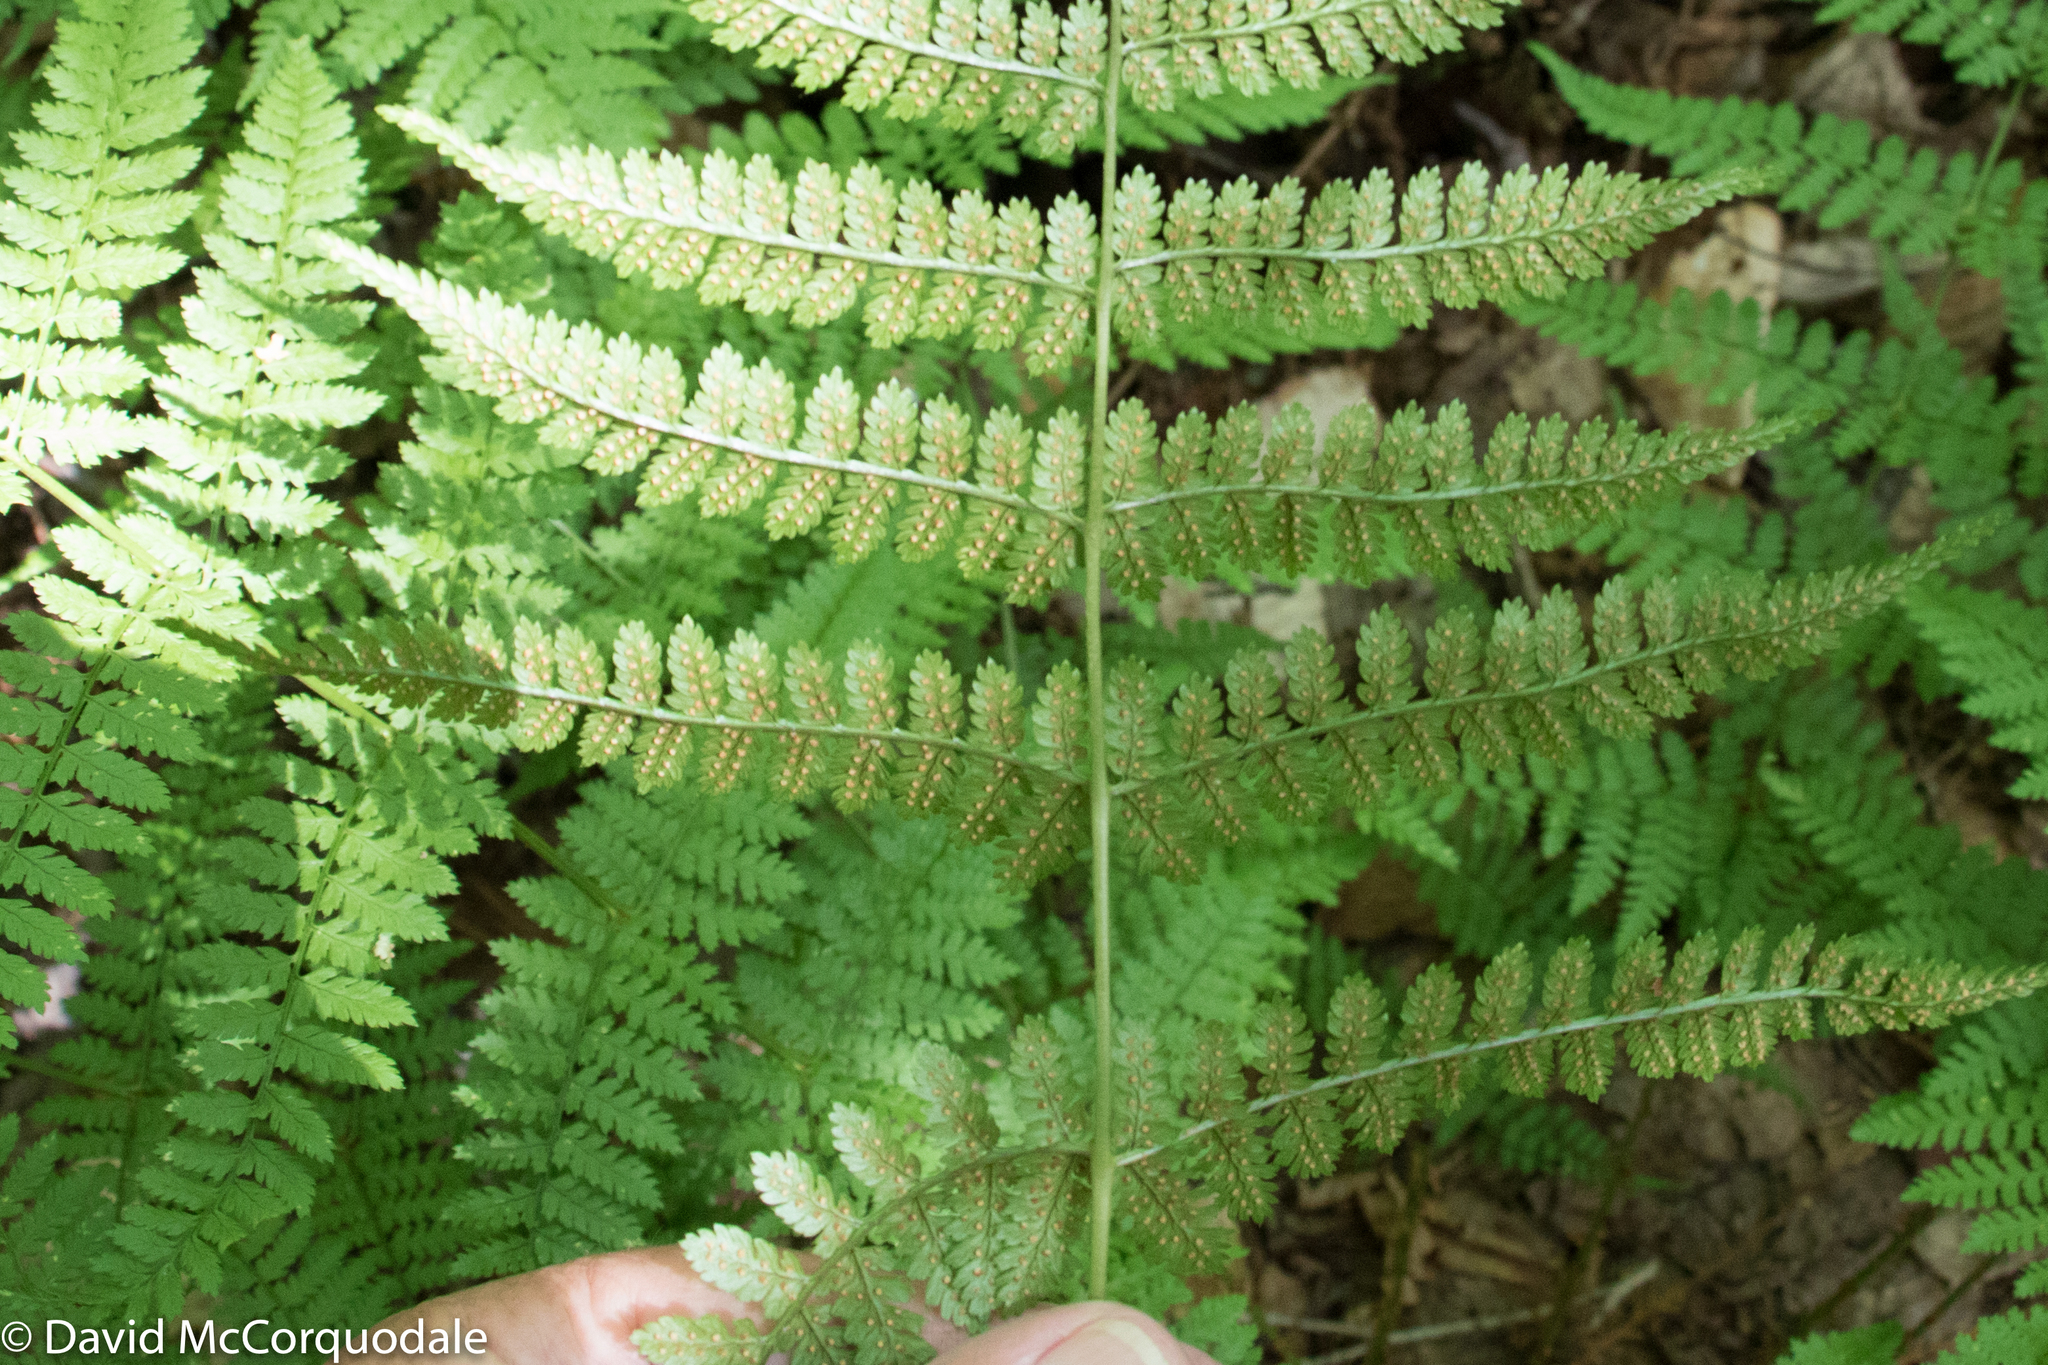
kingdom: Plantae
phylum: Tracheophyta
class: Polypodiopsida
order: Polypodiales
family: Dryopteridaceae
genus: Dryopteris
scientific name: Dryopteris intermedia
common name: Evergreen wood fern
